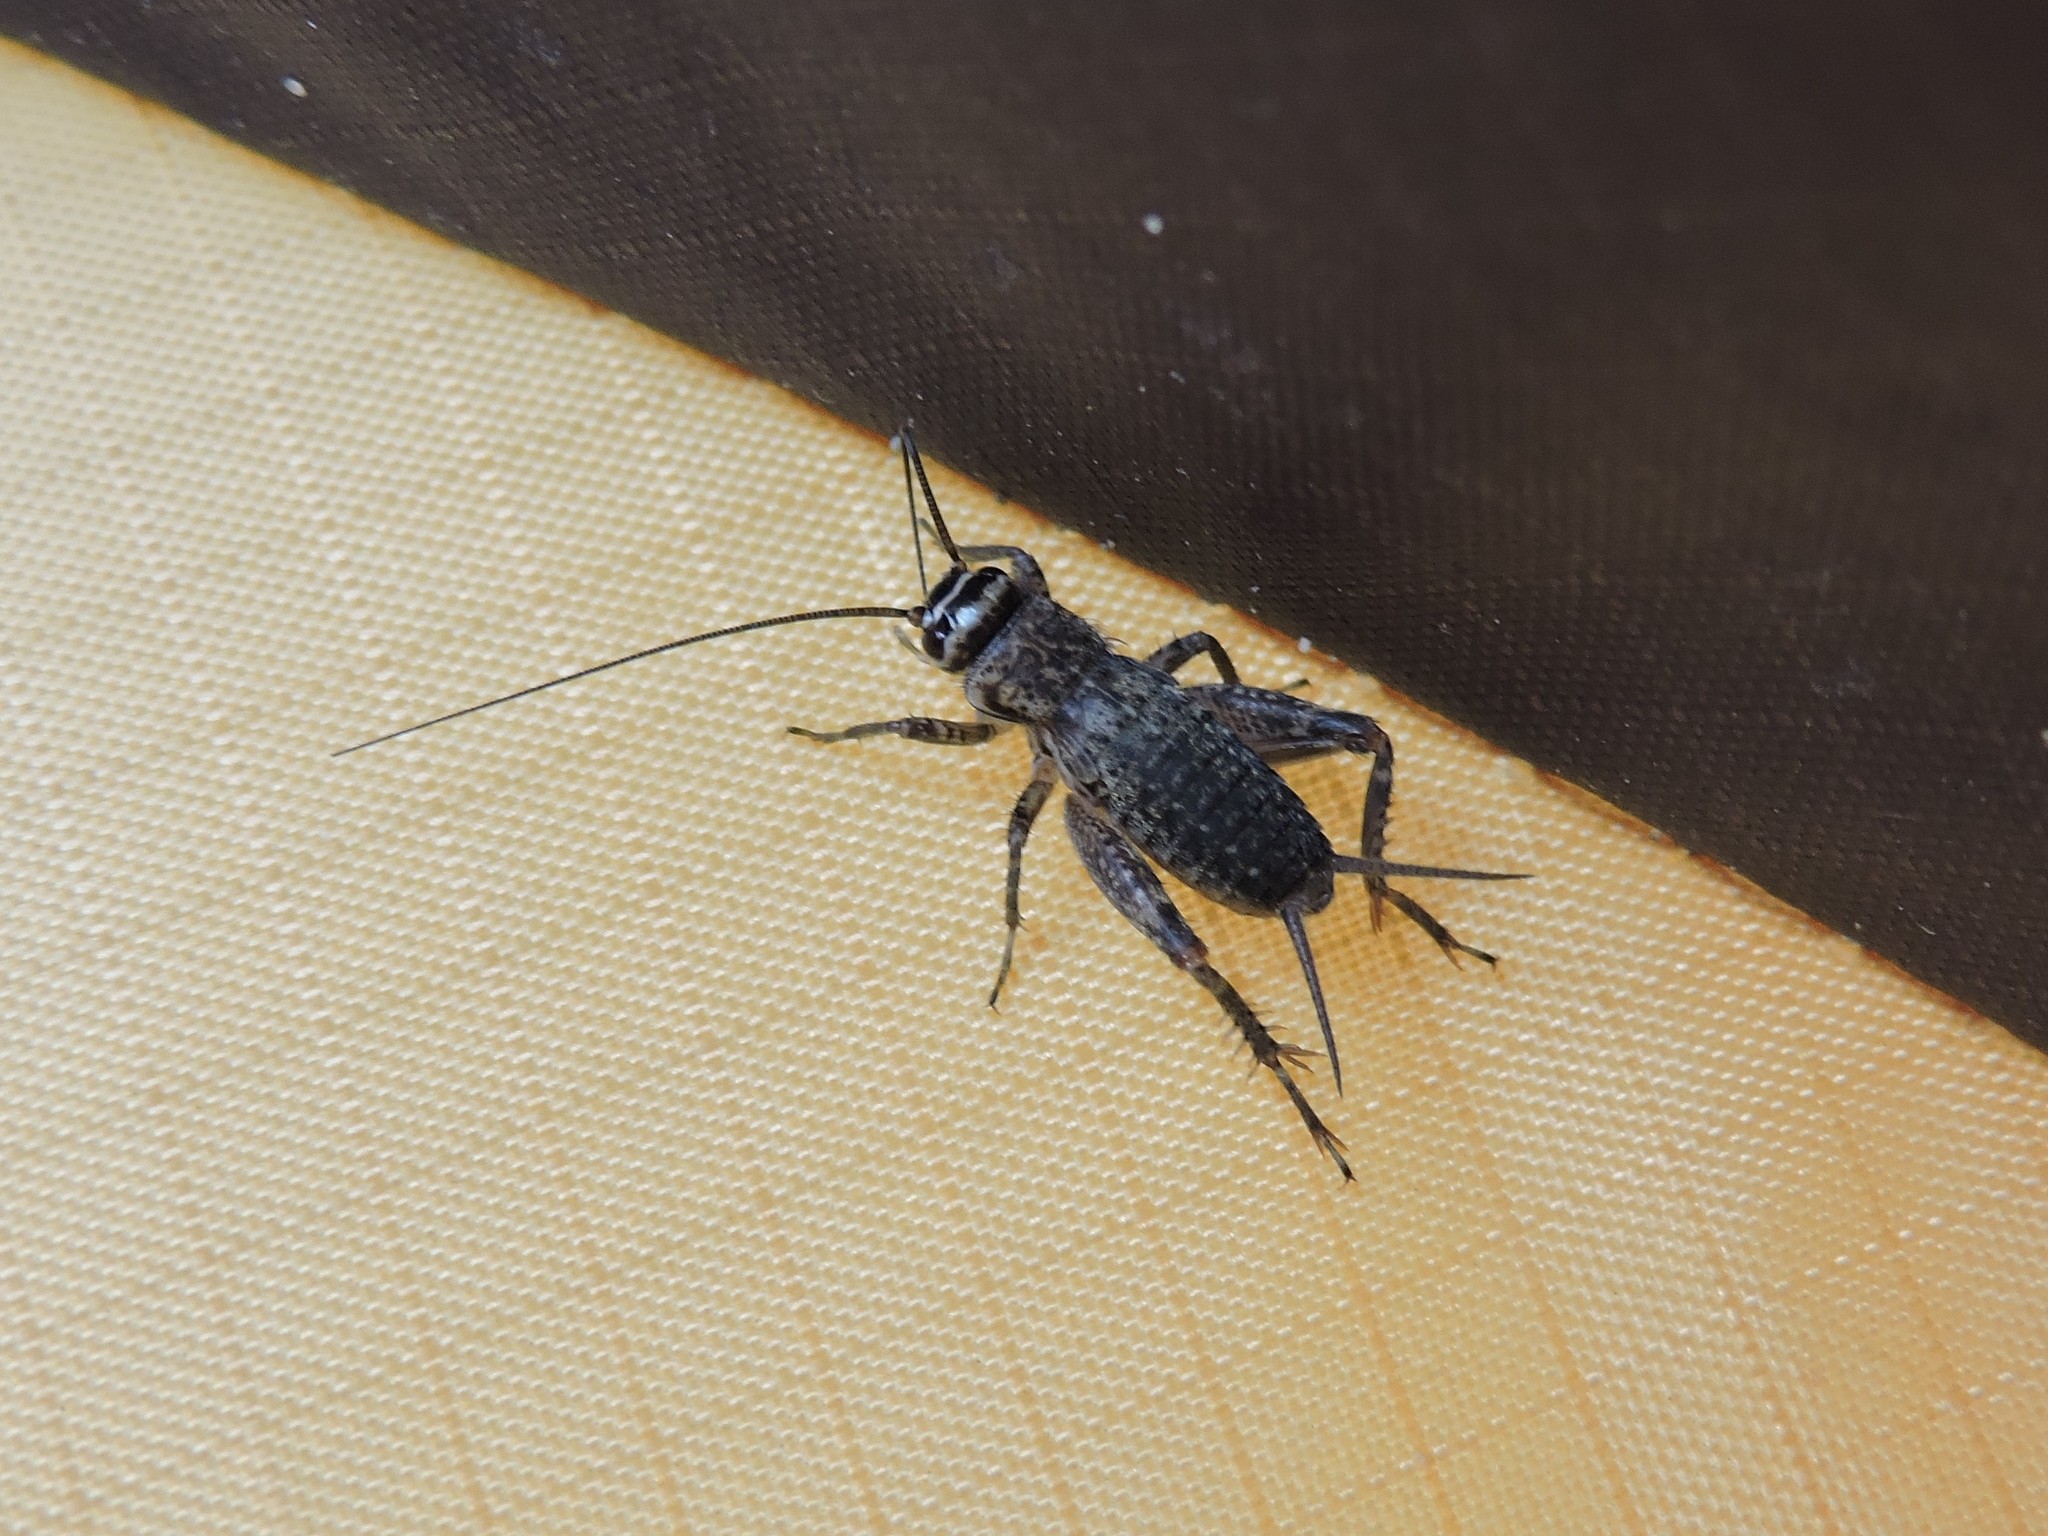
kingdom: Animalia
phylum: Arthropoda
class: Insecta
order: Orthoptera
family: Gryllidae
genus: Modicogryllus
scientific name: Modicogryllus frontalis
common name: Eastern cricket
